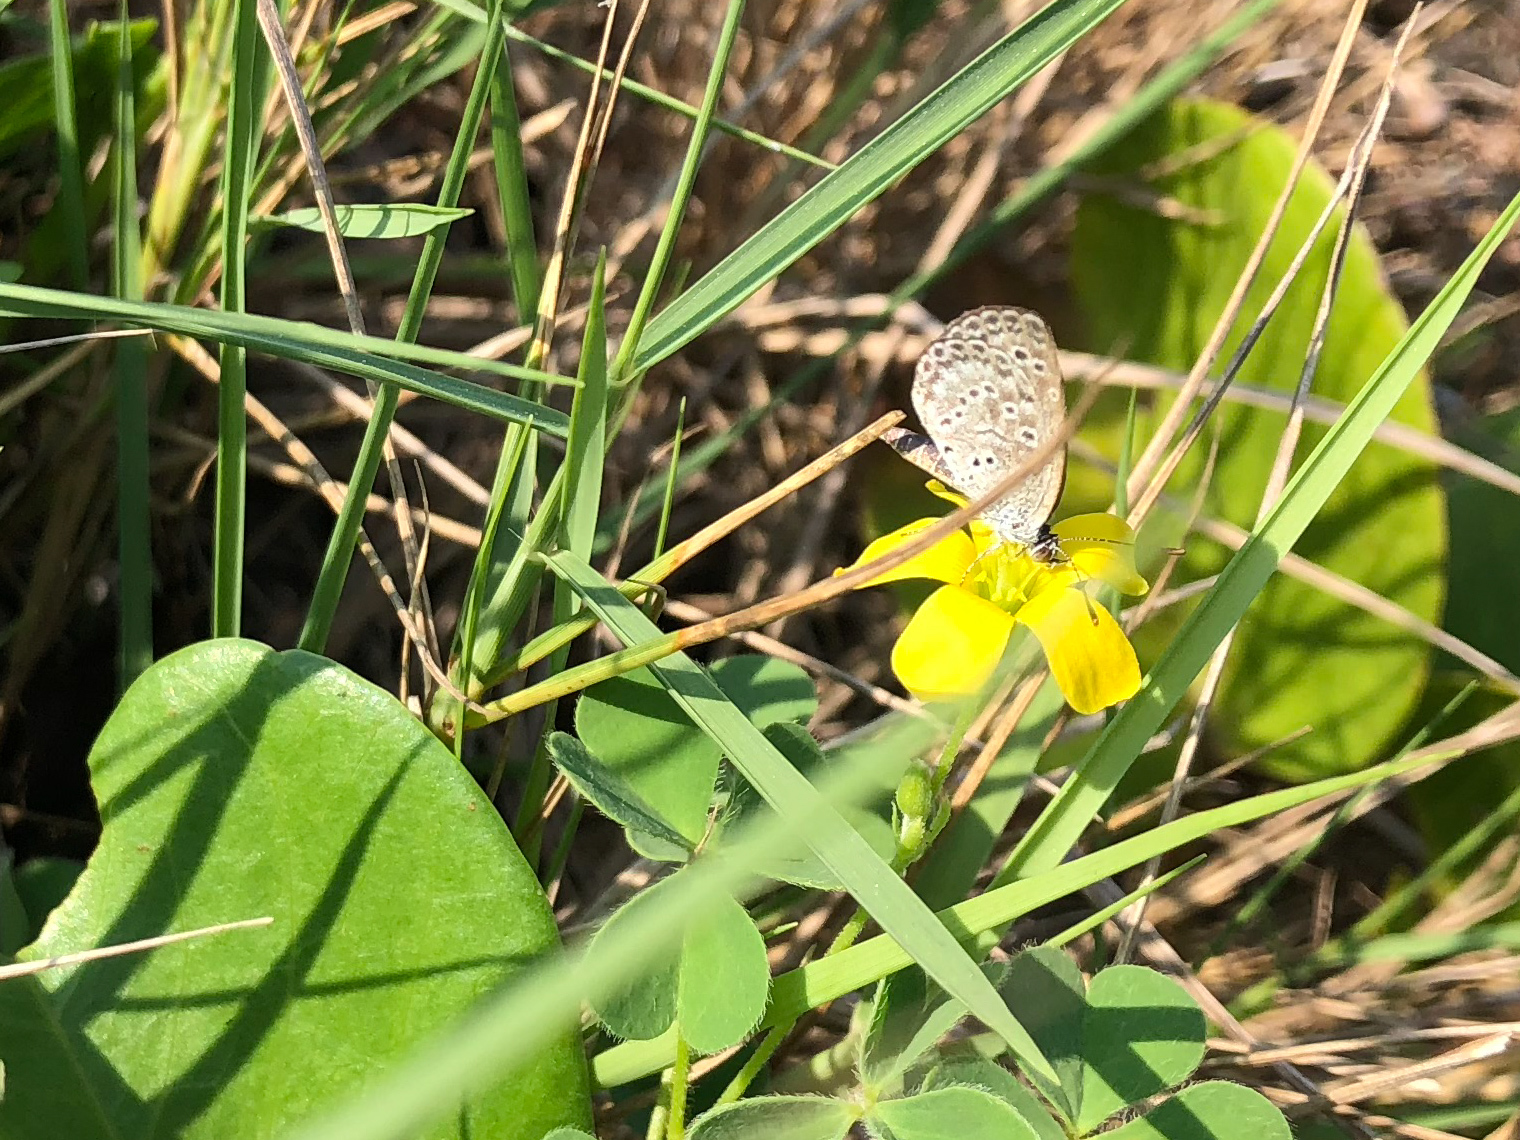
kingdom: Animalia
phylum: Arthropoda
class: Insecta
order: Lepidoptera
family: Lycaenidae
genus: Pseudozizeeria
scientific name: Pseudozizeeria maha
